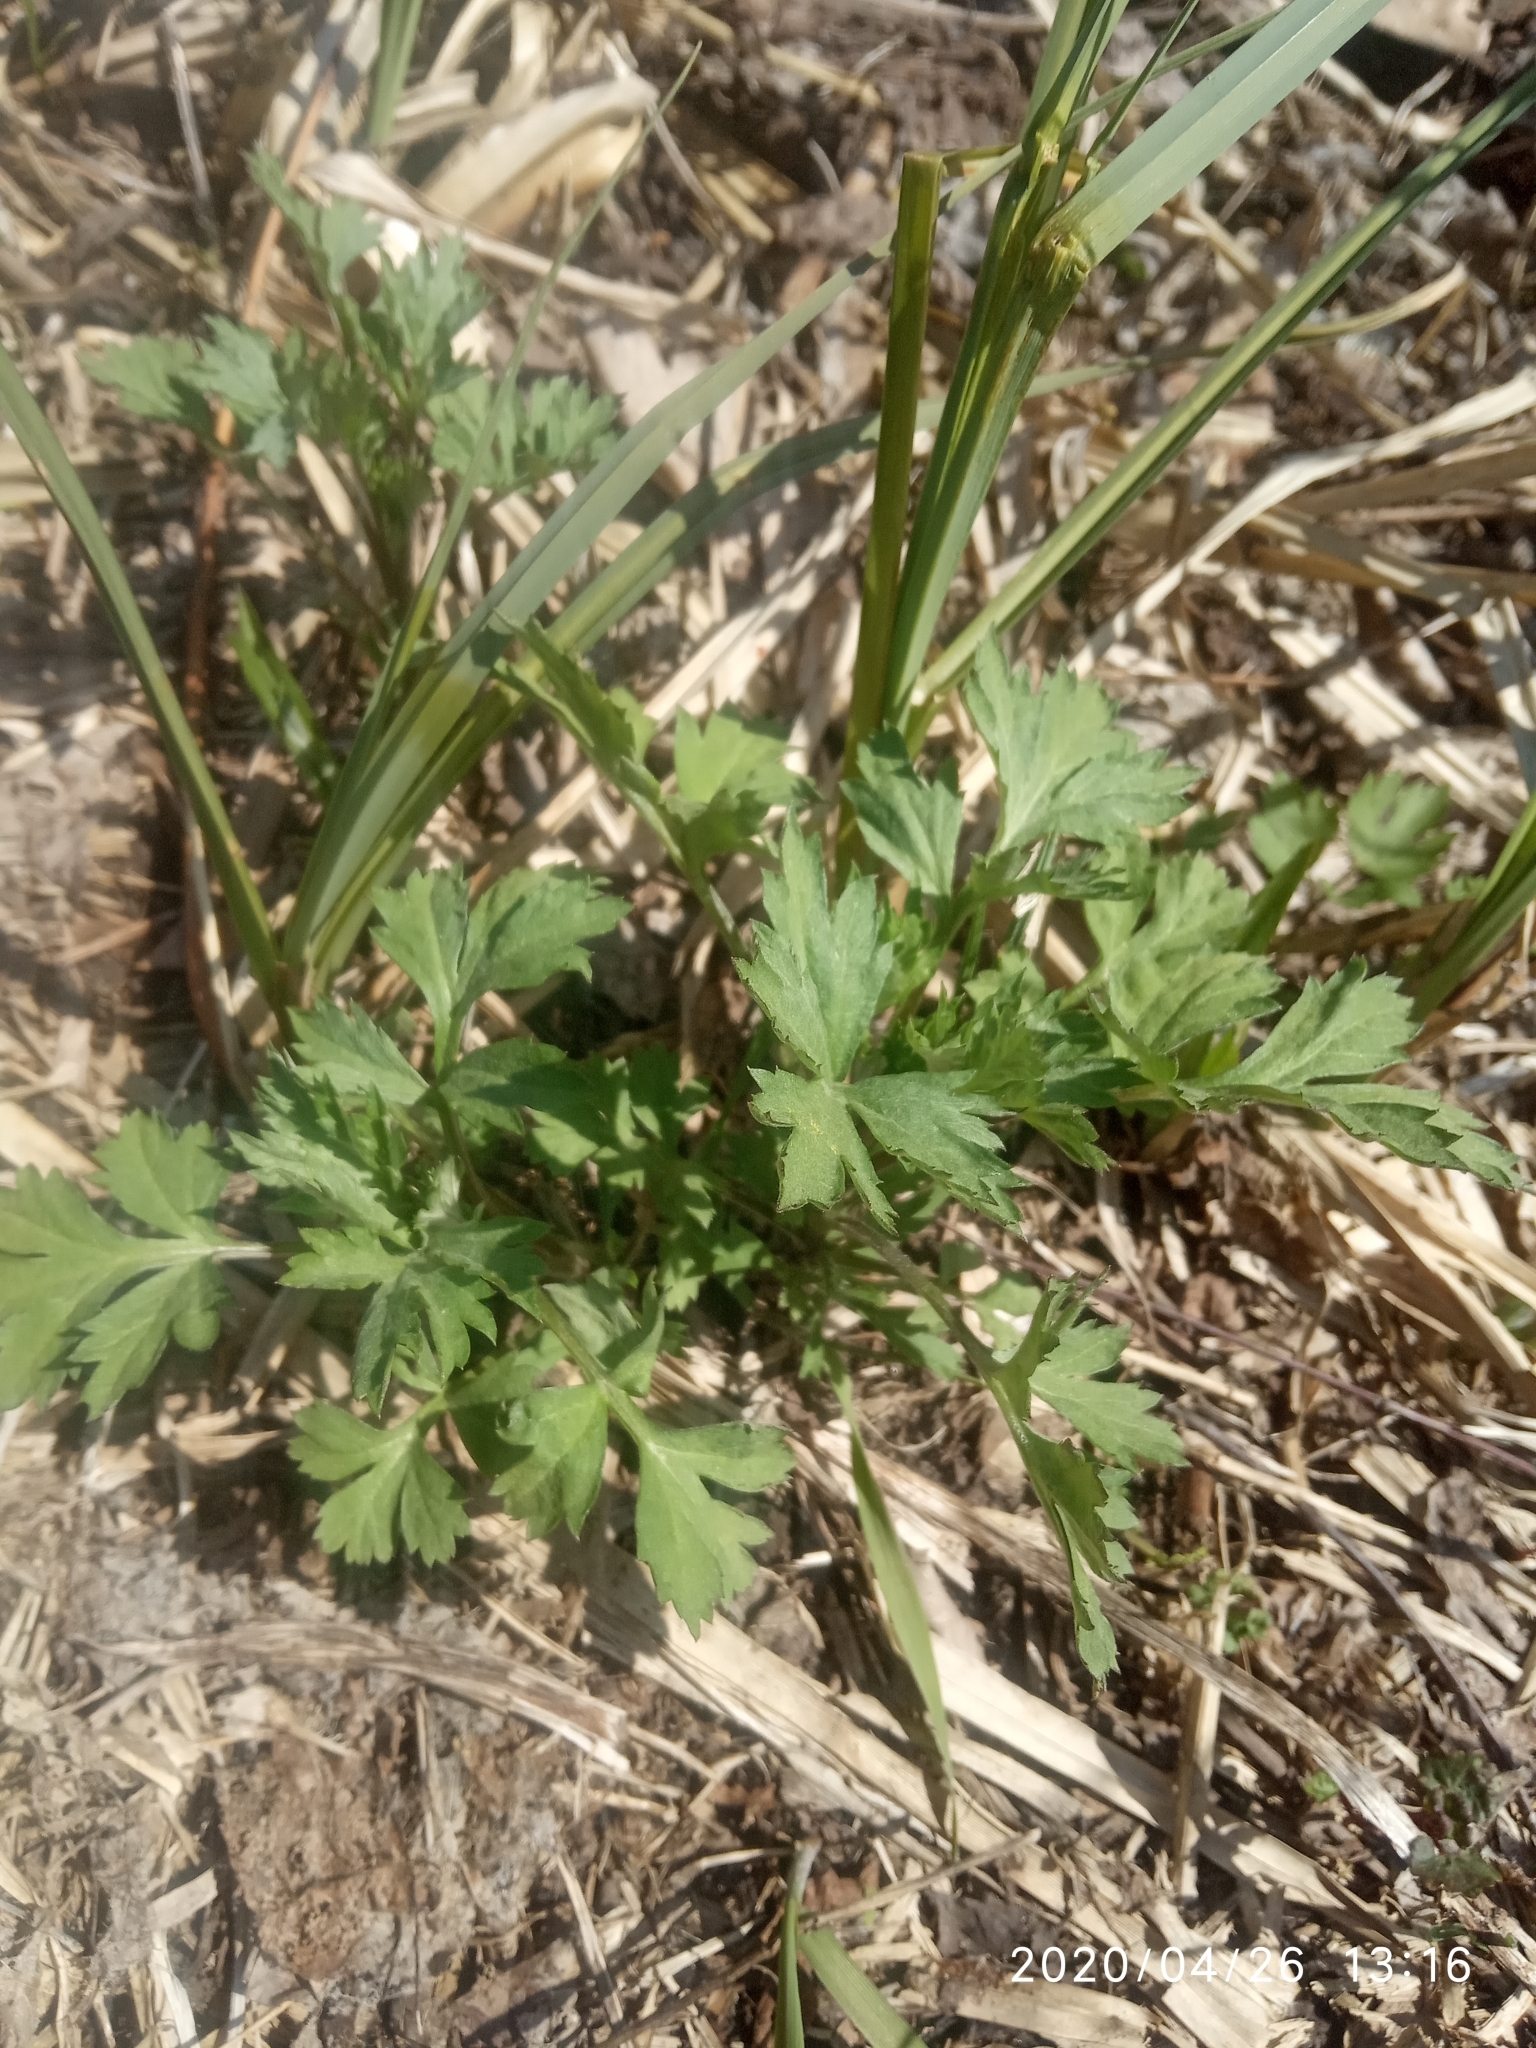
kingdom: Plantae
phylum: Tracheophyta
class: Magnoliopsida
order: Asterales
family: Asteraceae
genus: Artemisia
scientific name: Artemisia vulgaris
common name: Mugwort
